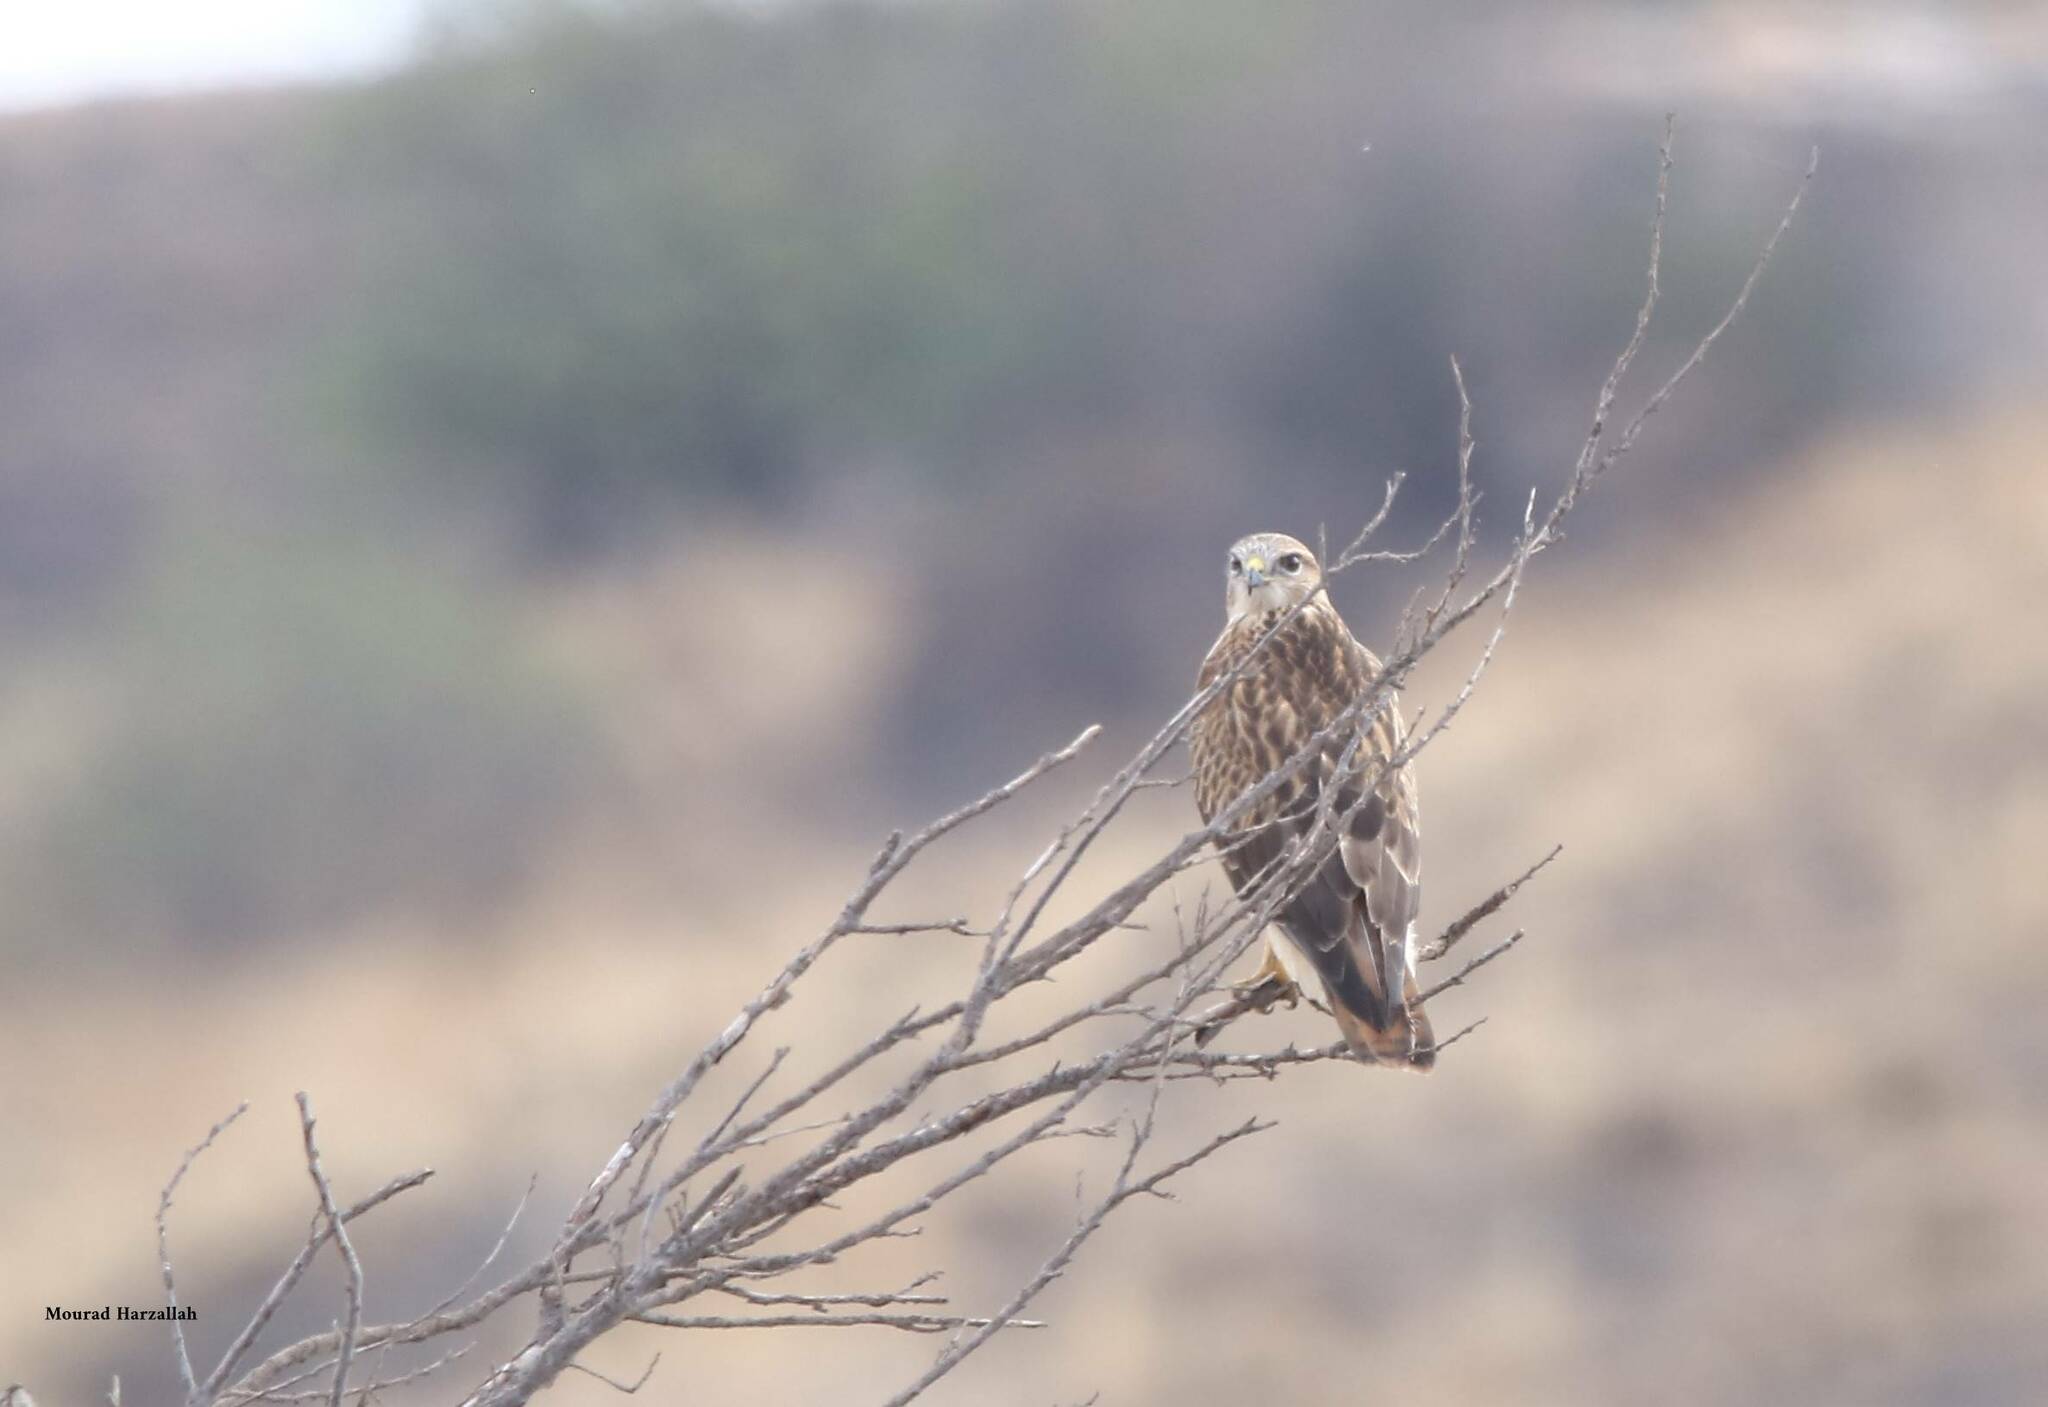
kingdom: Animalia
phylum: Chordata
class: Aves
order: Accipitriformes
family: Accipitridae
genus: Buteo
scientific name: Buteo rufinus
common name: Long-legged buzzard
